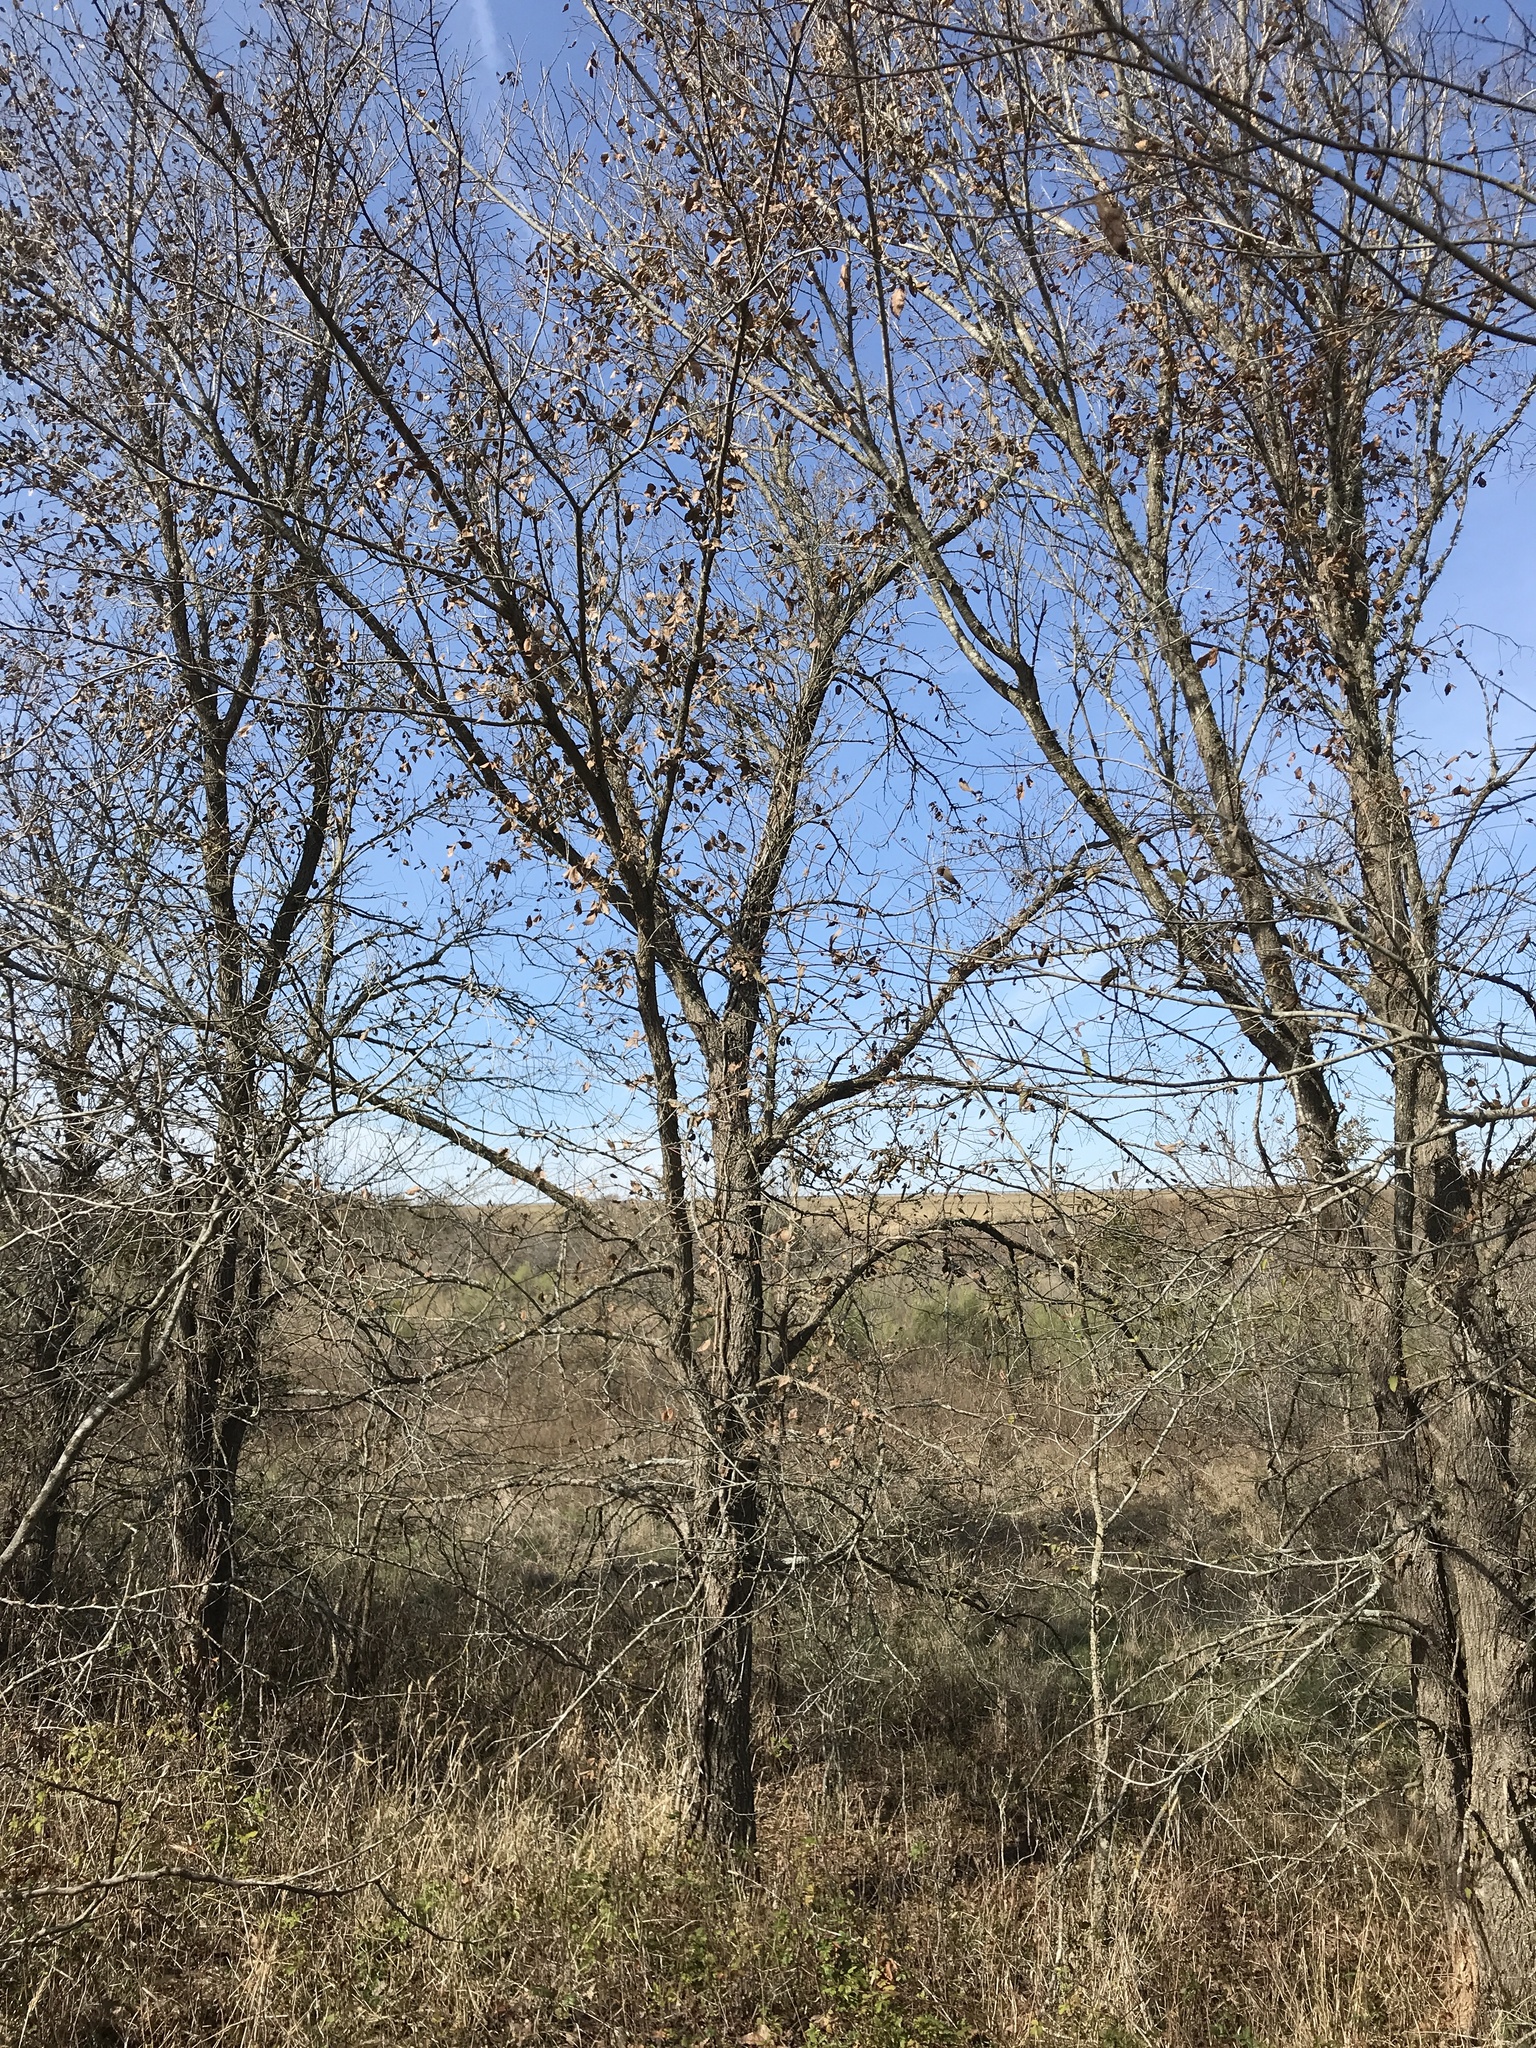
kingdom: Plantae
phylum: Tracheophyta
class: Magnoliopsida
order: Rosales
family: Ulmaceae
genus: Ulmus
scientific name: Ulmus americana
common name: American elm
